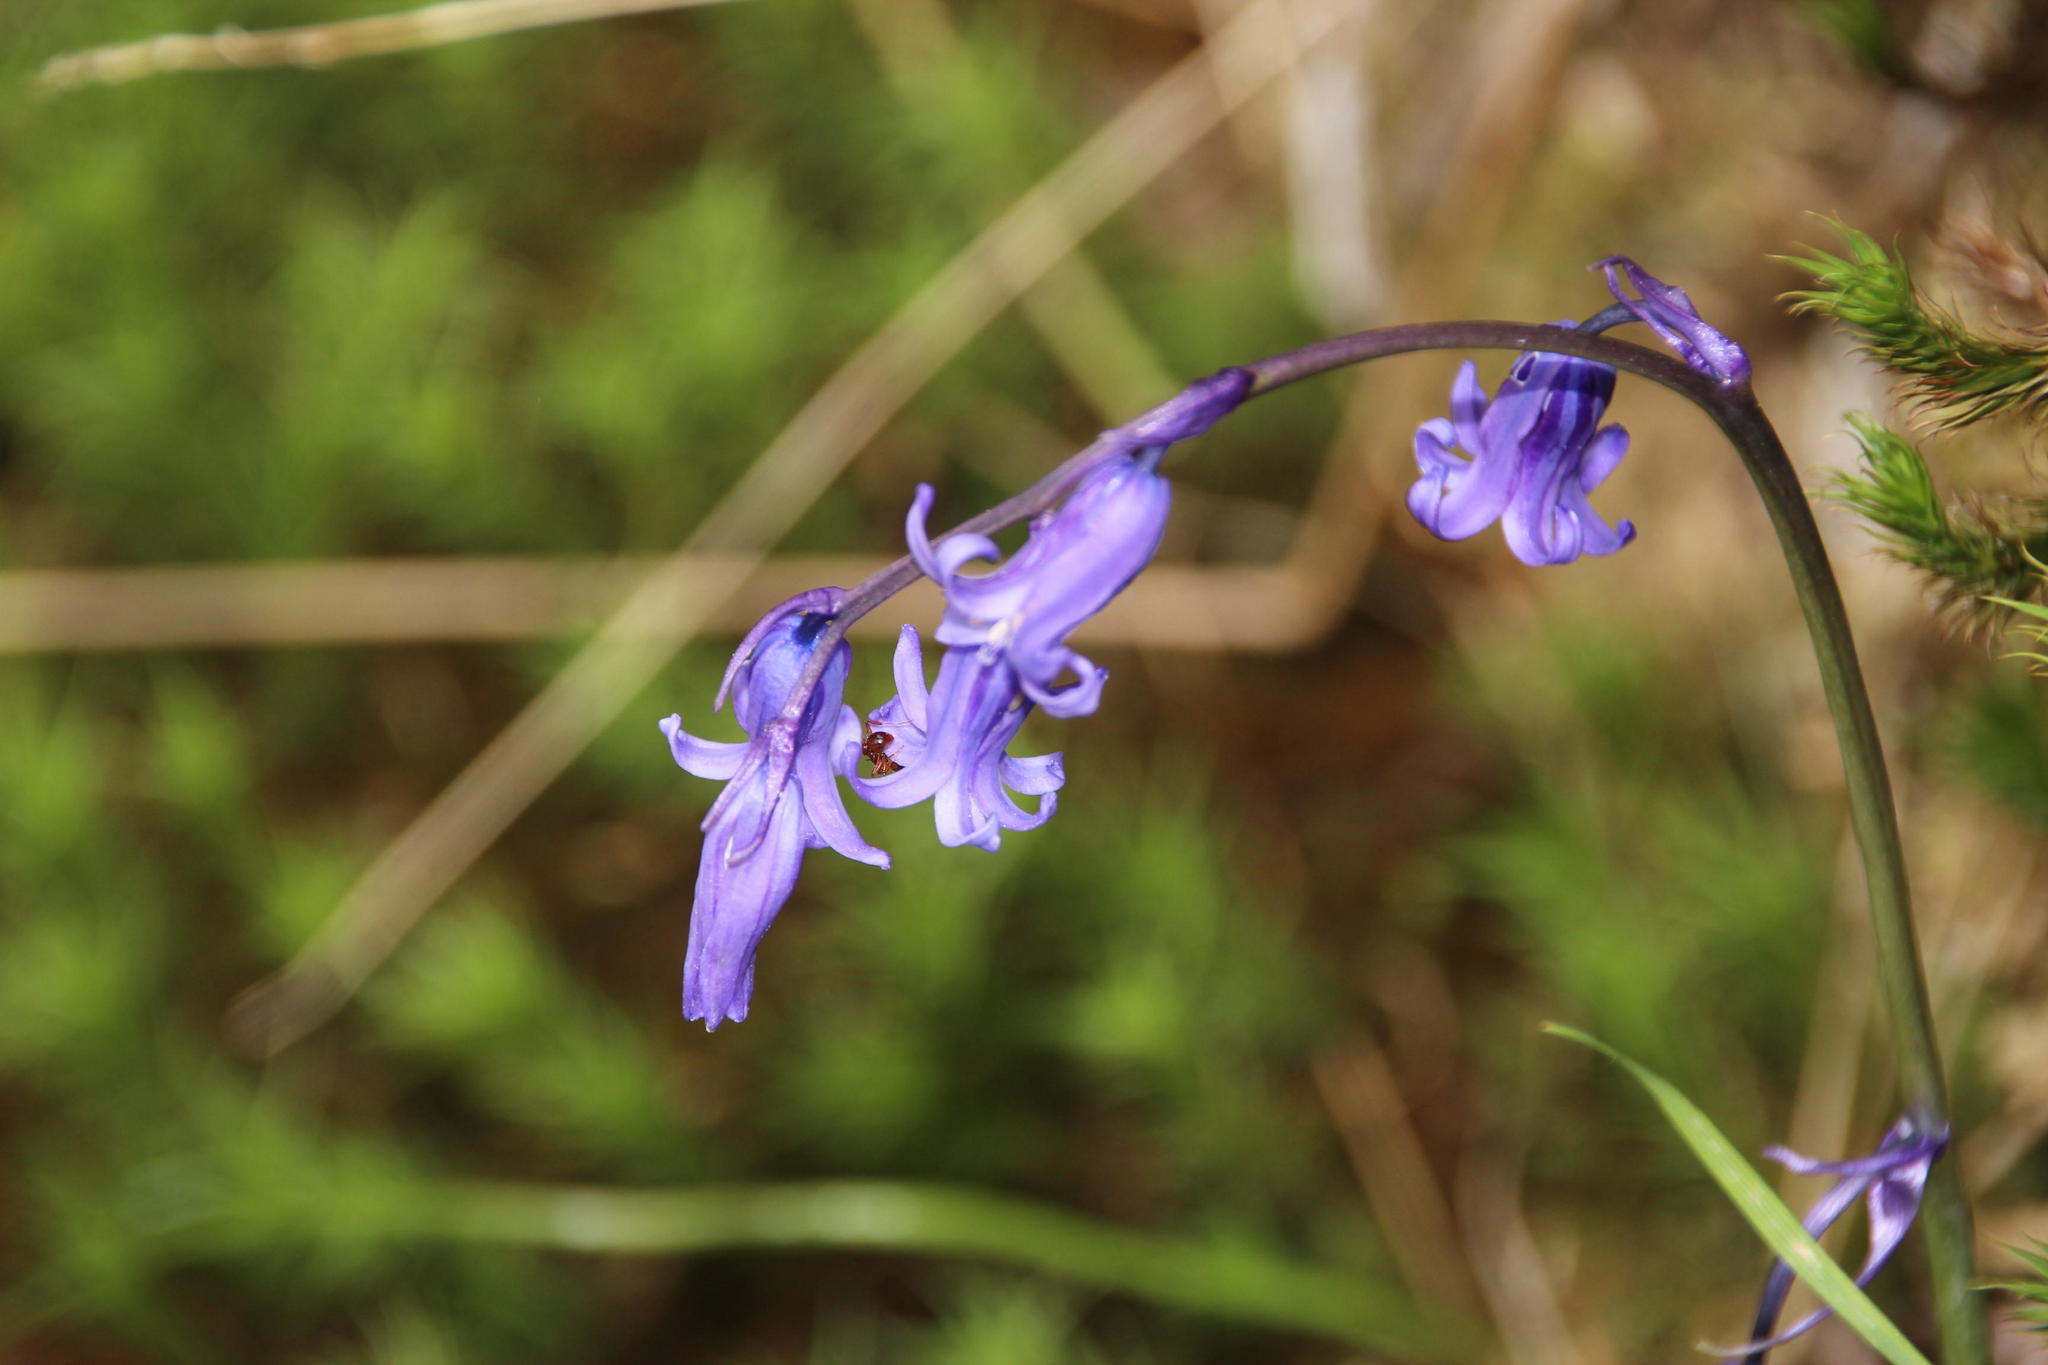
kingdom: Plantae
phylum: Tracheophyta
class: Liliopsida
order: Asparagales
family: Asparagaceae
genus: Hyacinthoides
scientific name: Hyacinthoides non-scripta
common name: Bluebell
